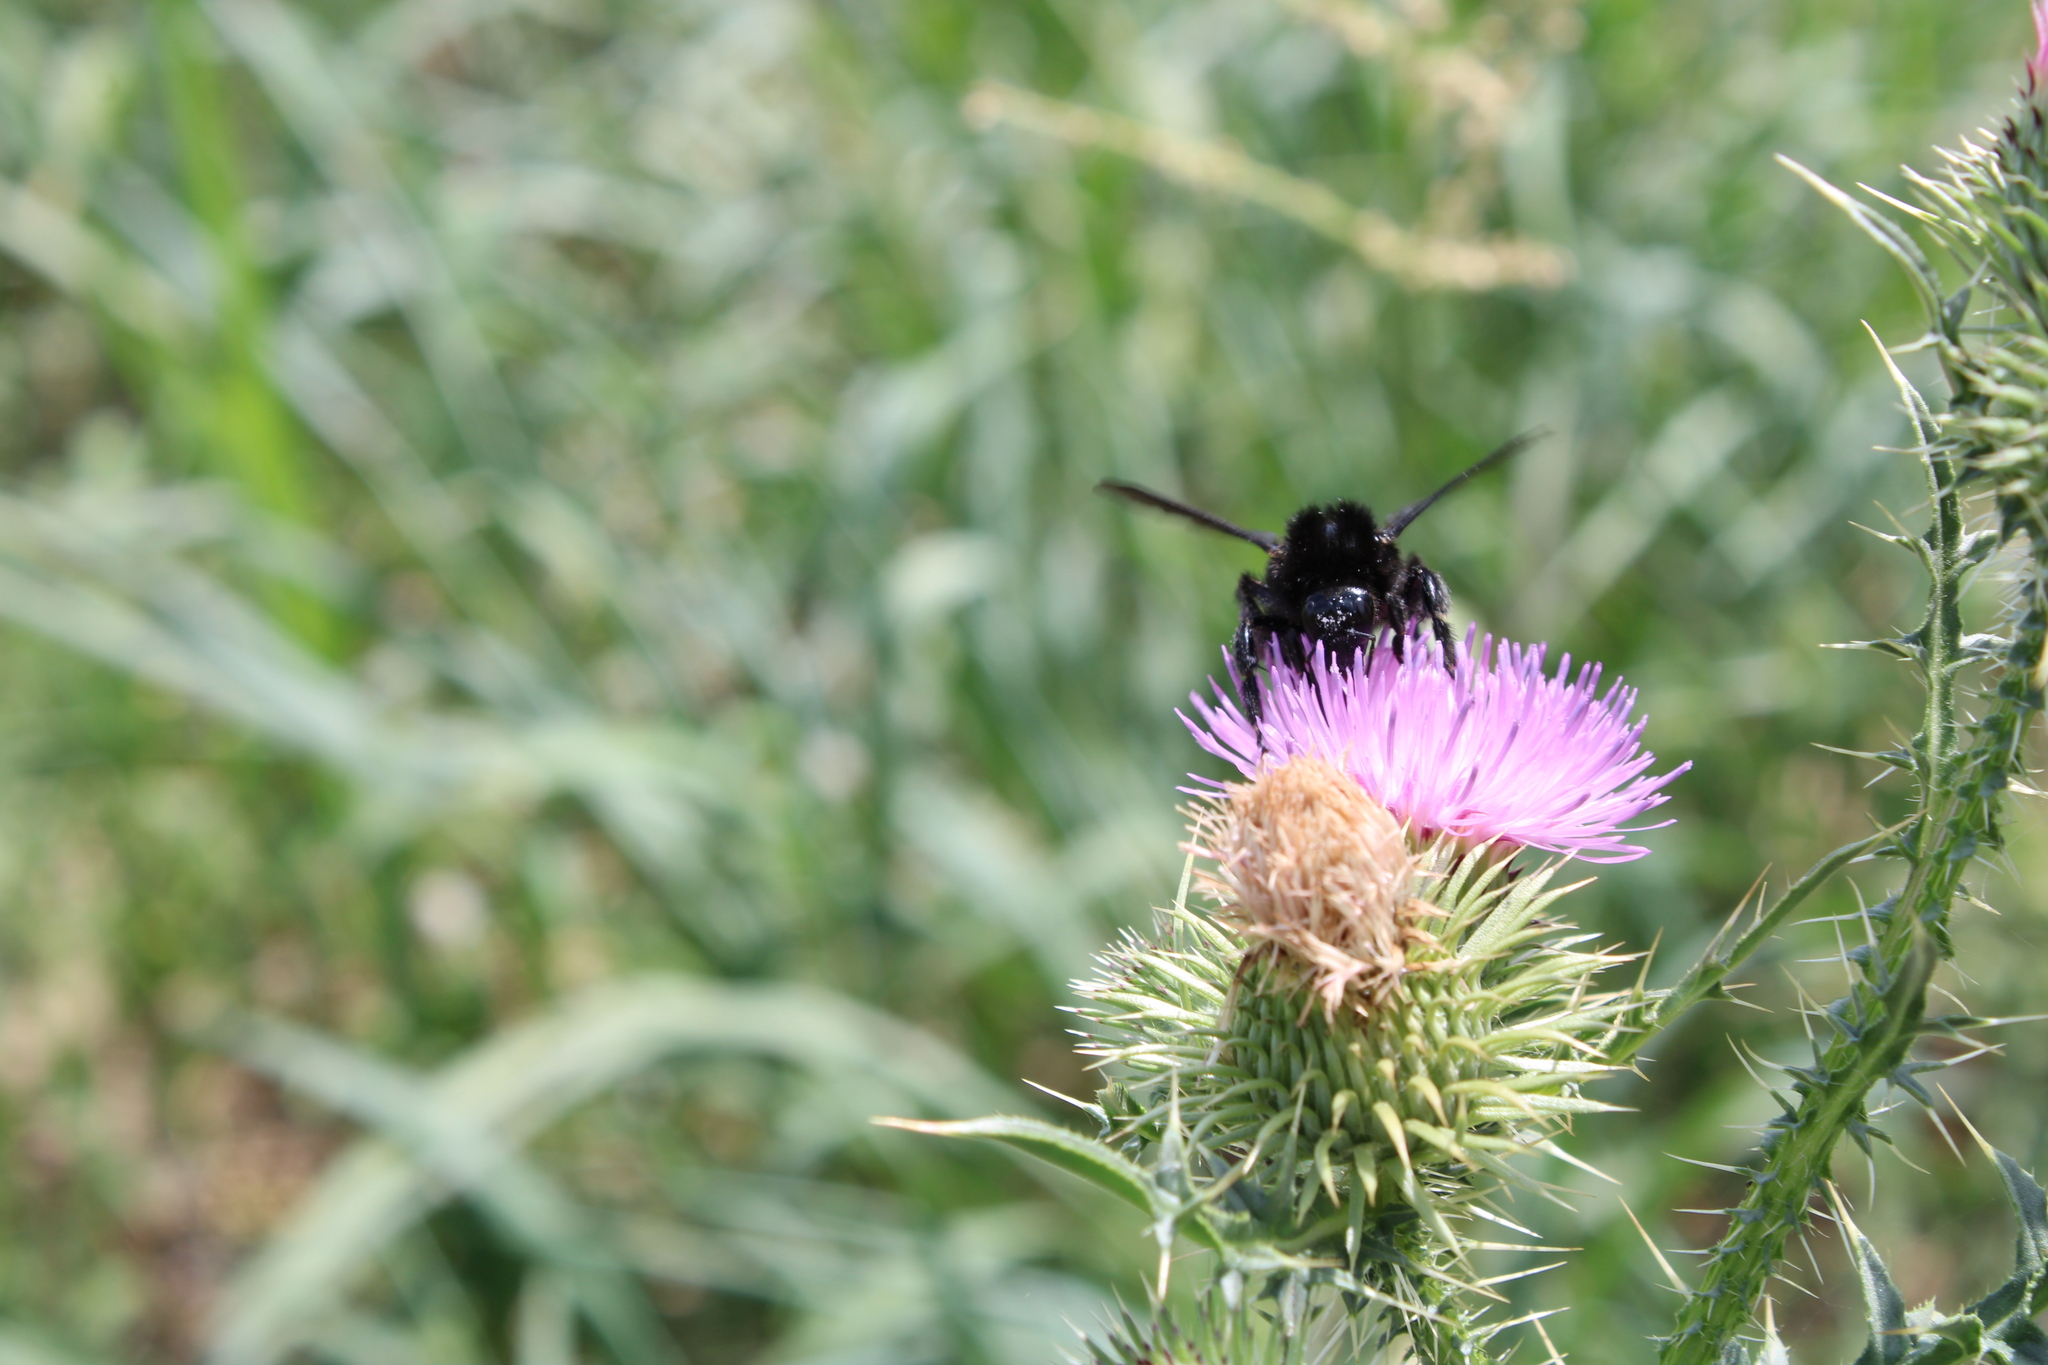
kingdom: Animalia
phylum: Arthropoda
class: Insecta
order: Hymenoptera
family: Apidae
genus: Bombus
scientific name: Bombus pauloensis
